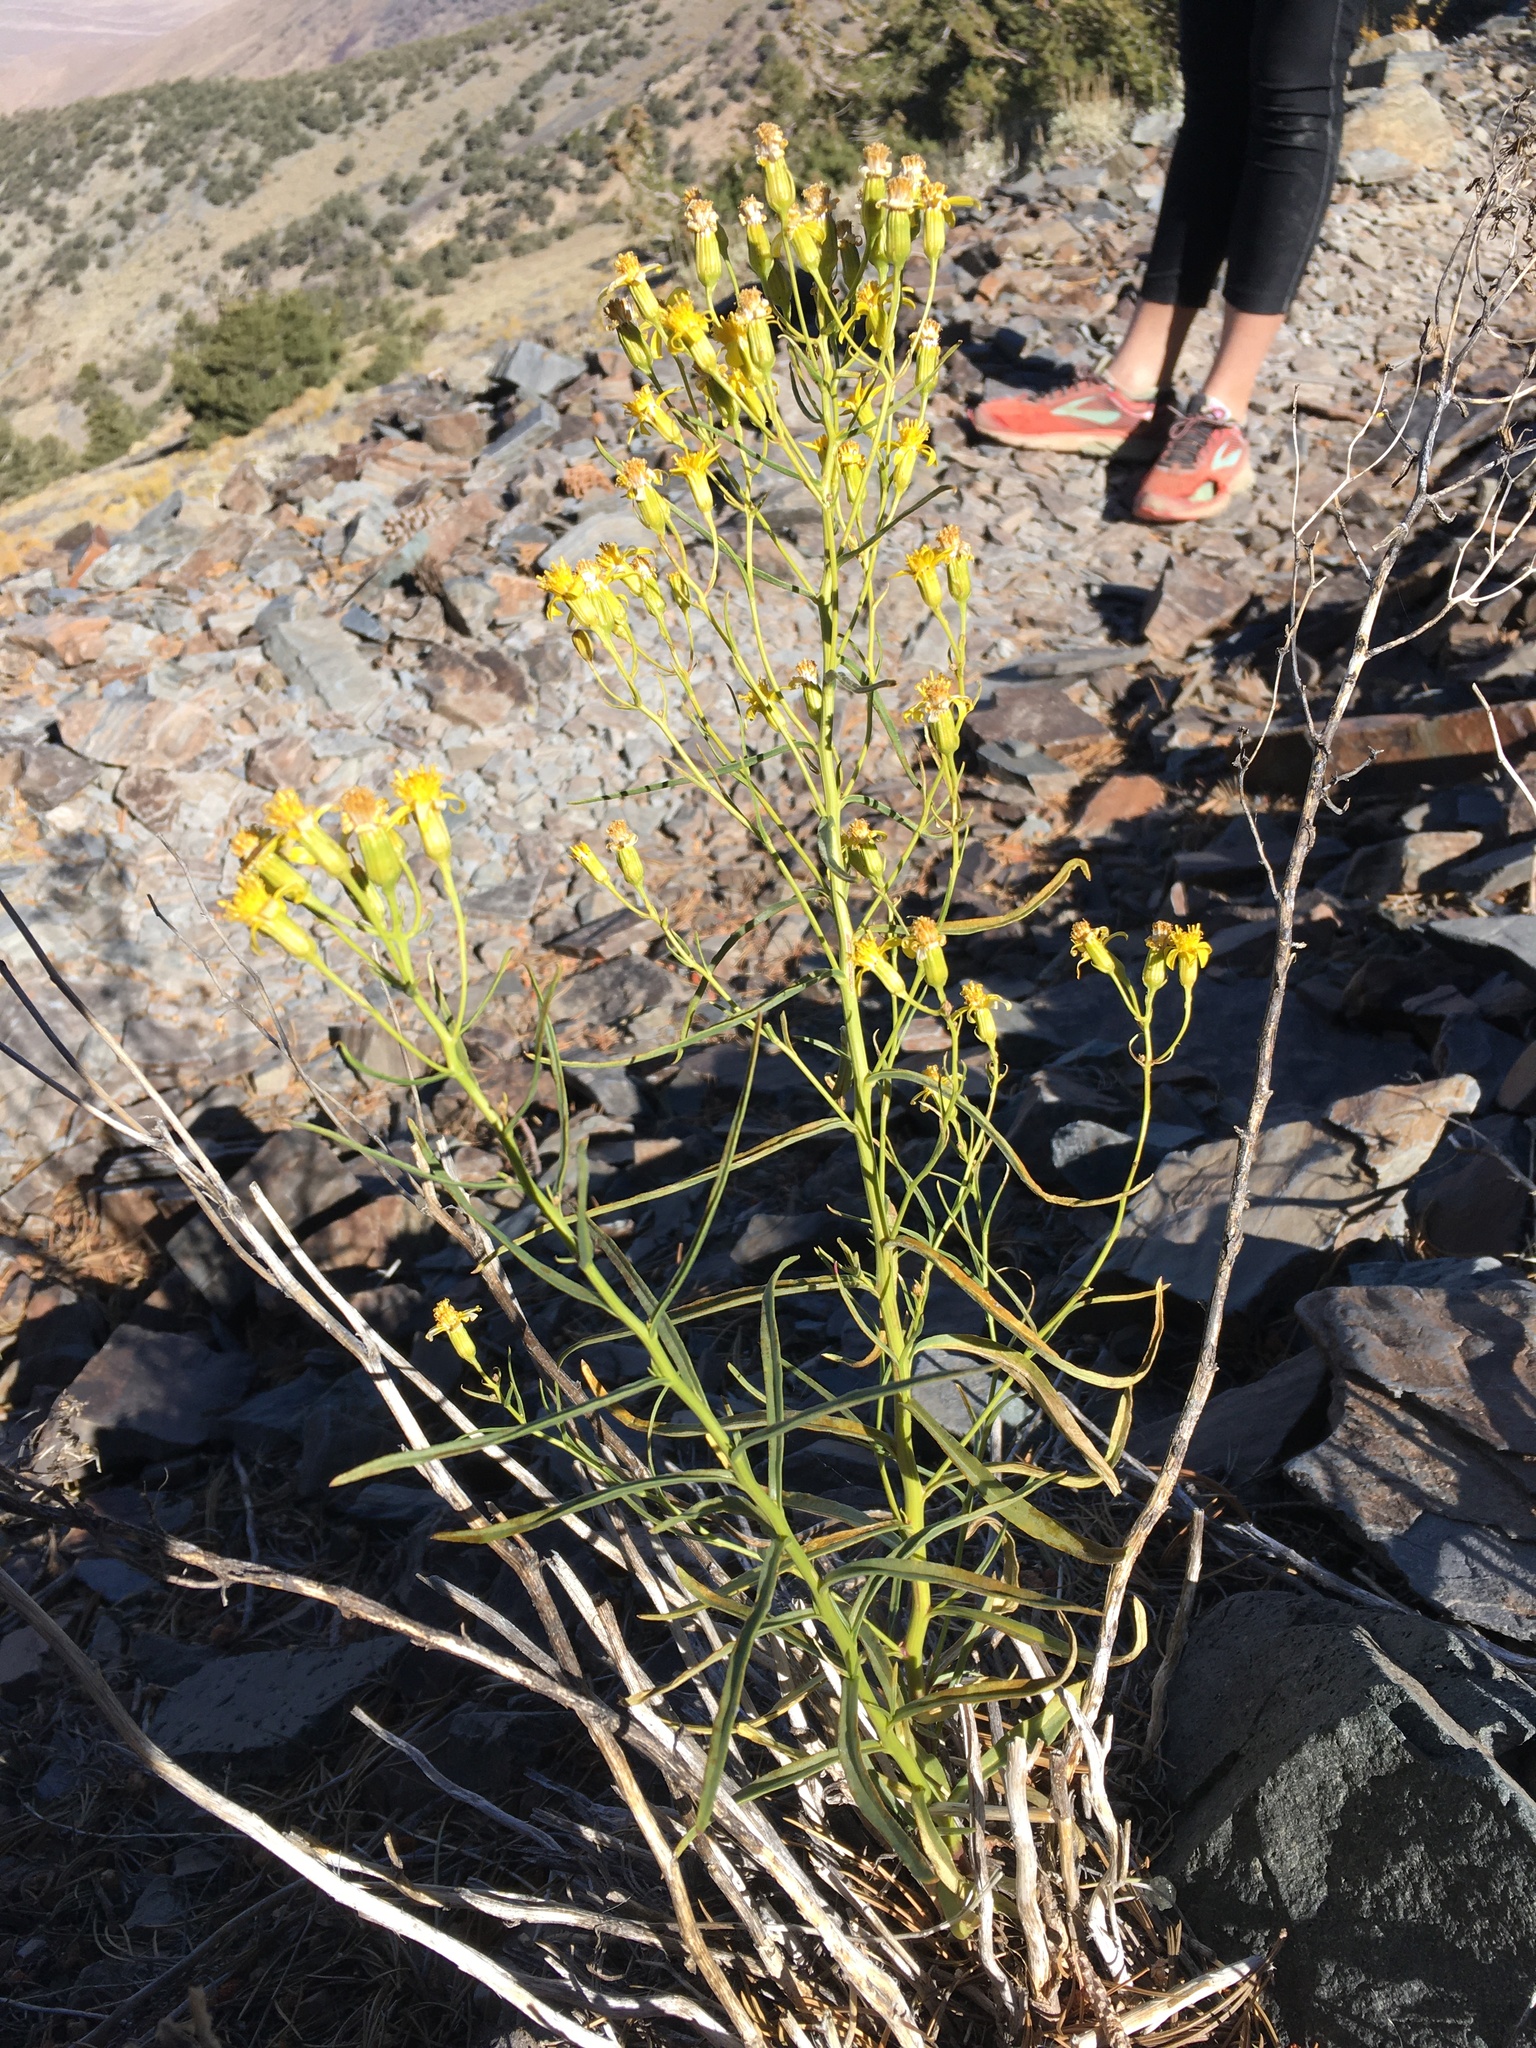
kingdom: Plantae
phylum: Tracheophyta
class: Magnoliopsida
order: Asterales
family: Asteraceae
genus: Senecio
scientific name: Senecio spartioides
